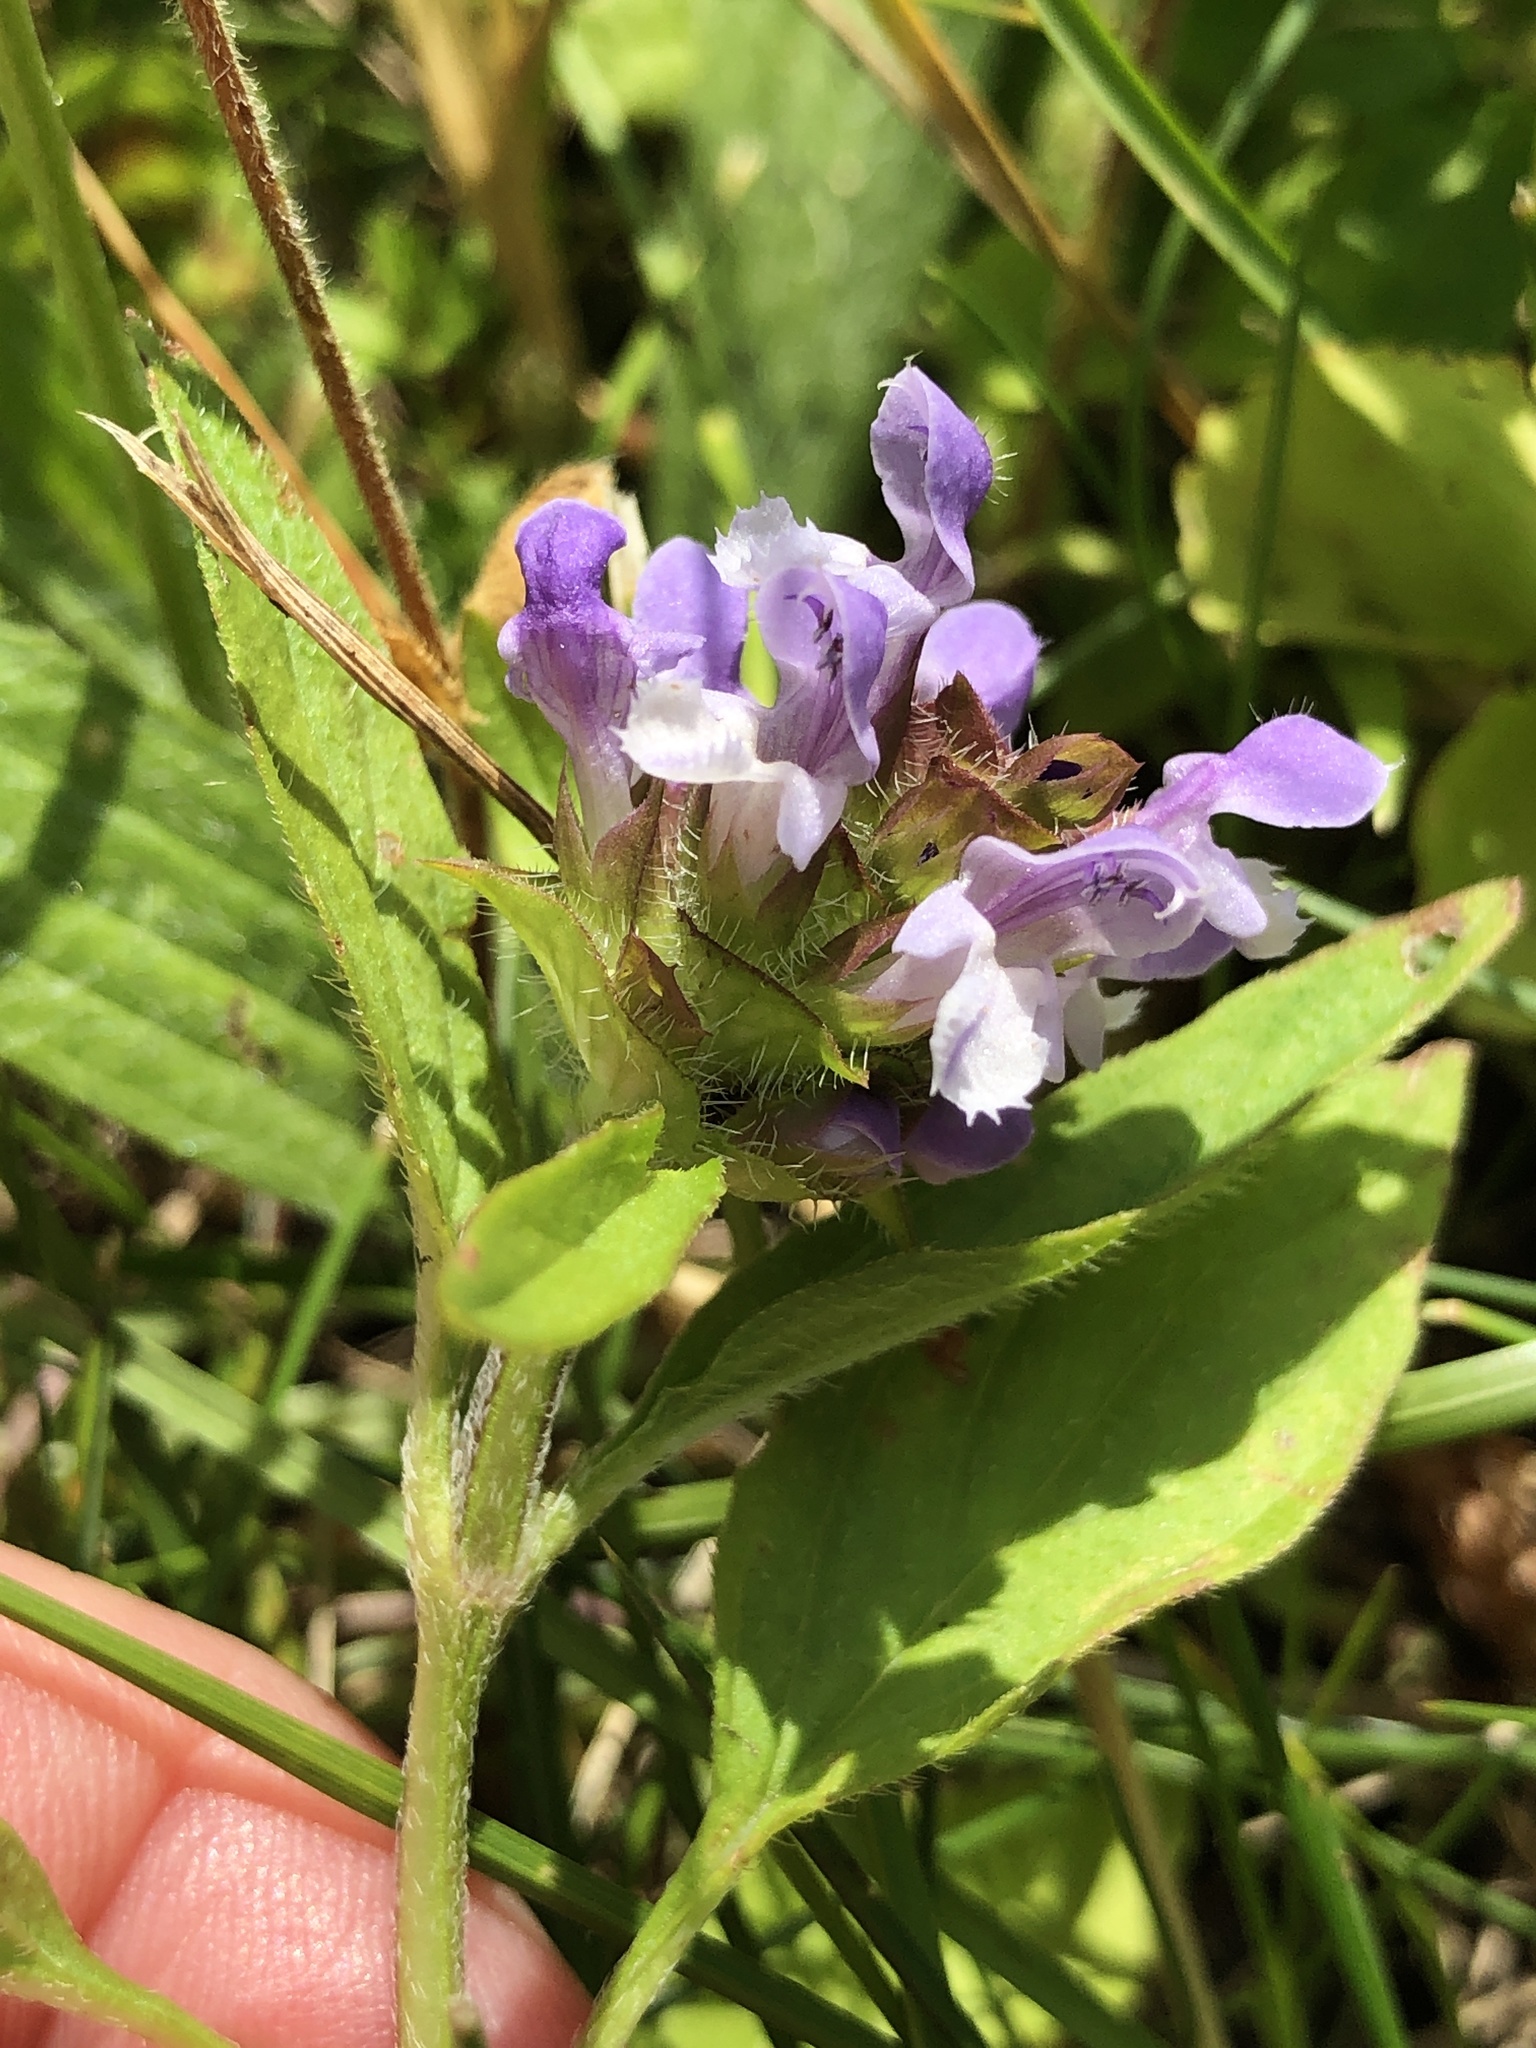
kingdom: Plantae
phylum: Tracheophyta
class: Magnoliopsida
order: Lamiales
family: Lamiaceae
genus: Prunella
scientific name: Prunella vulgaris
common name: Heal-all
